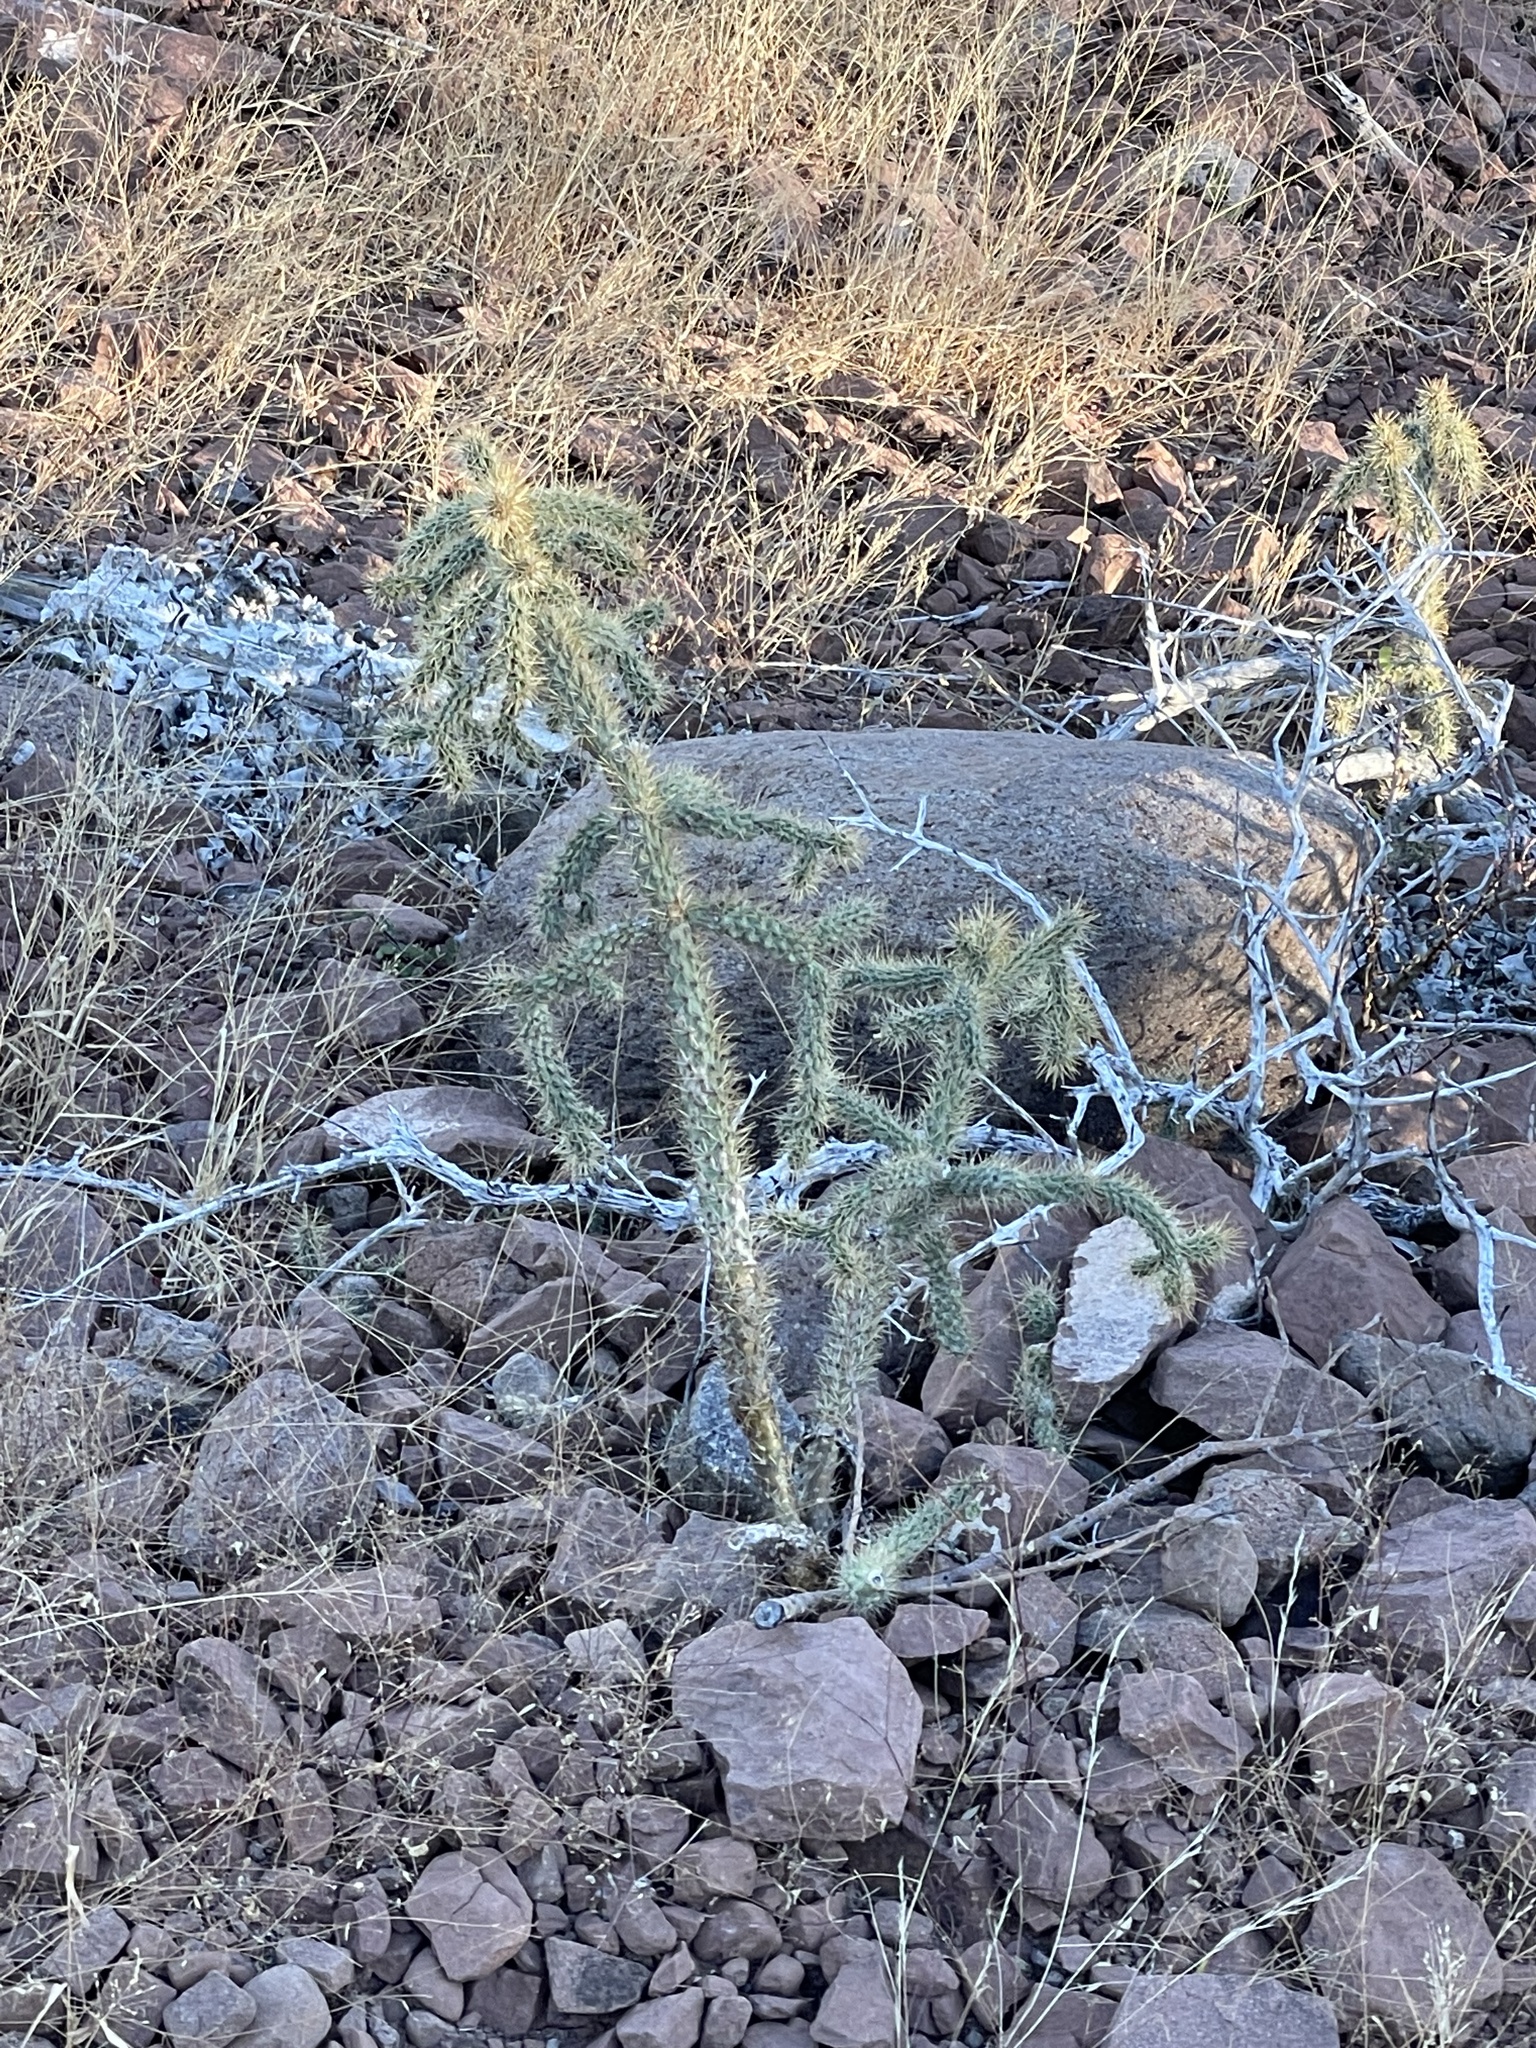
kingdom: Plantae
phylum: Tracheophyta
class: Magnoliopsida
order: Caryophyllales
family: Cactaceae
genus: Cylindropuntia
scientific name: Cylindropuntia alcahes
